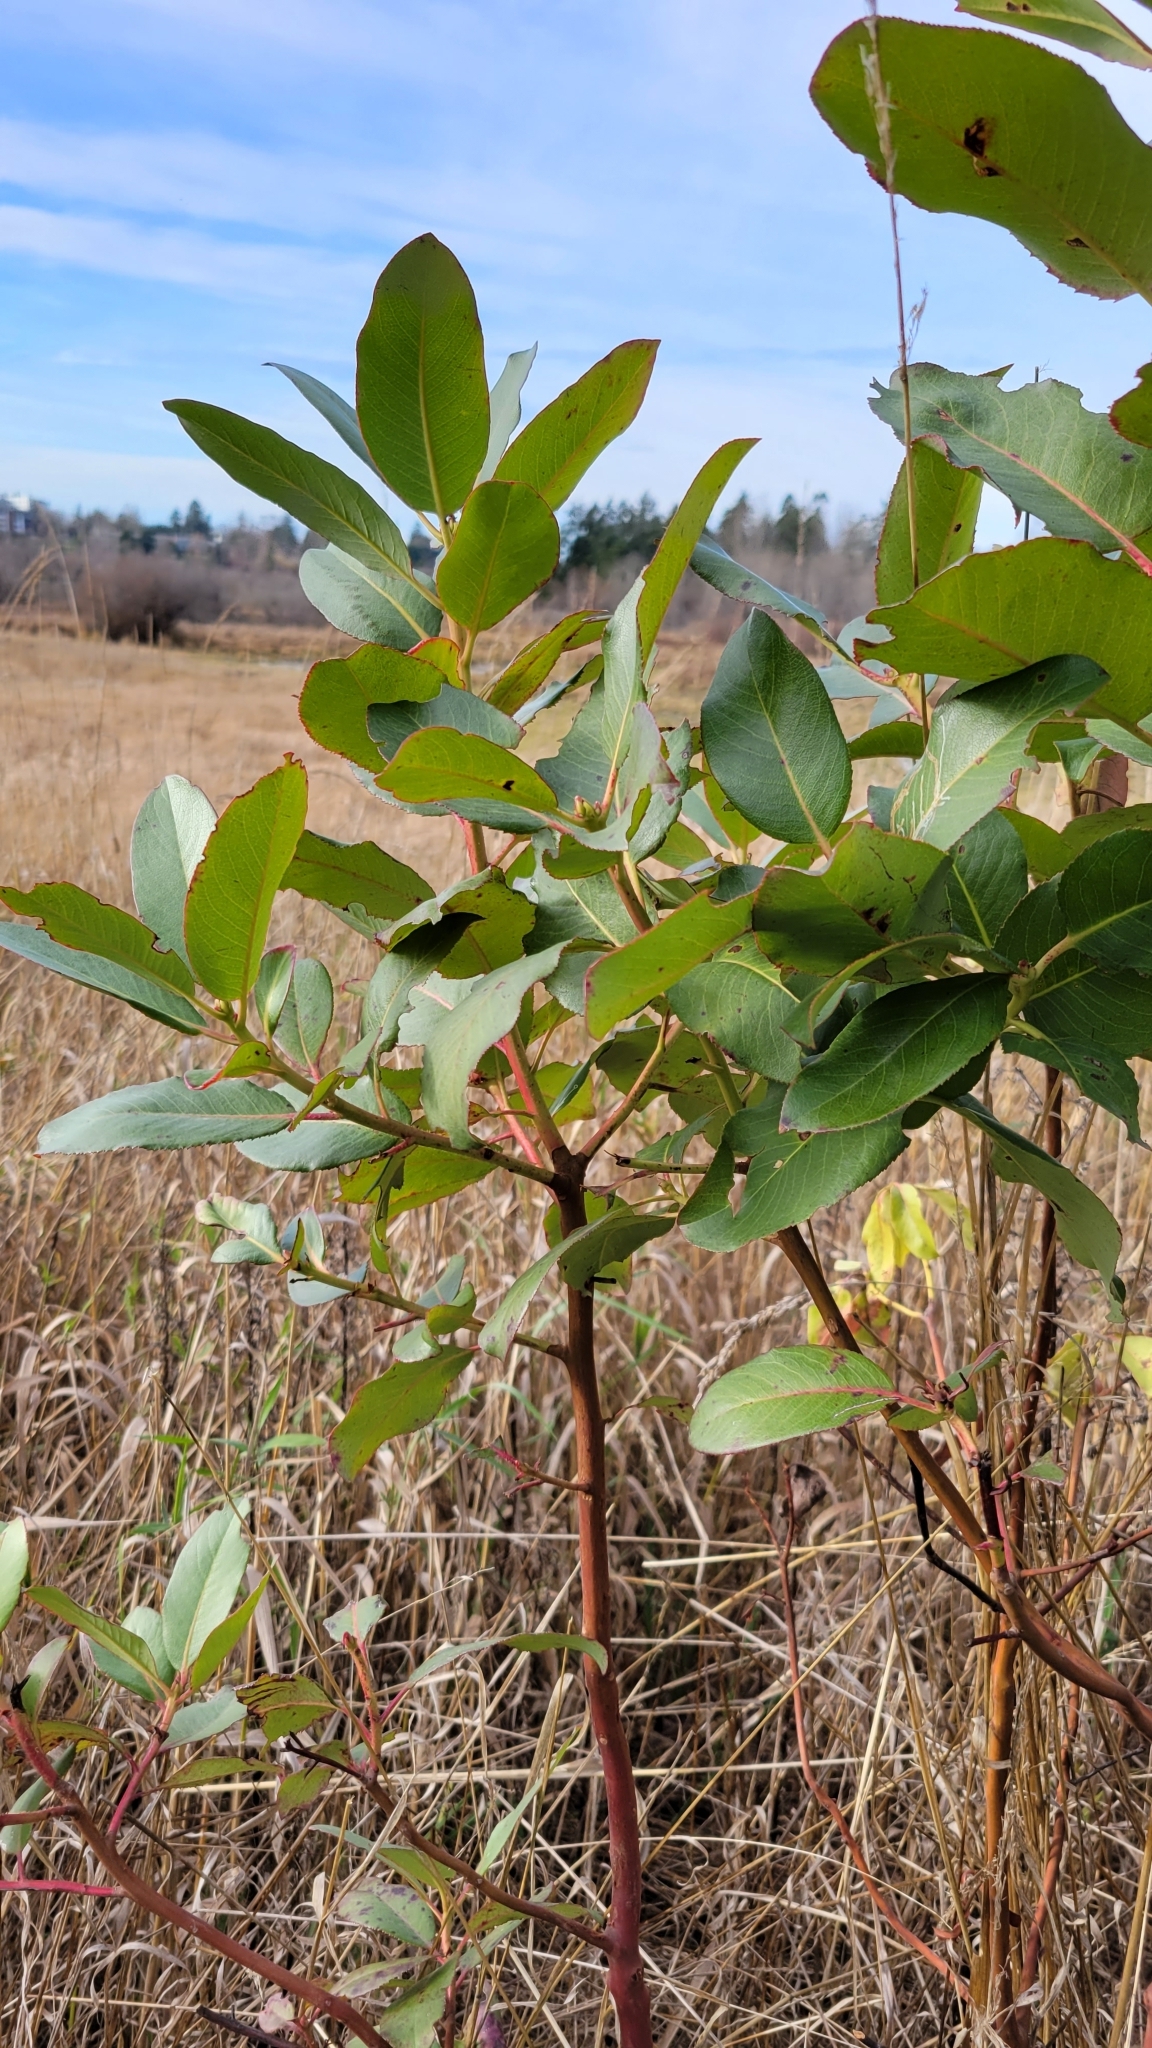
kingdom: Plantae
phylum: Tracheophyta
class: Magnoliopsida
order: Ericales
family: Ericaceae
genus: Arbutus
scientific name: Arbutus menziesii
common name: Pacific madrone
